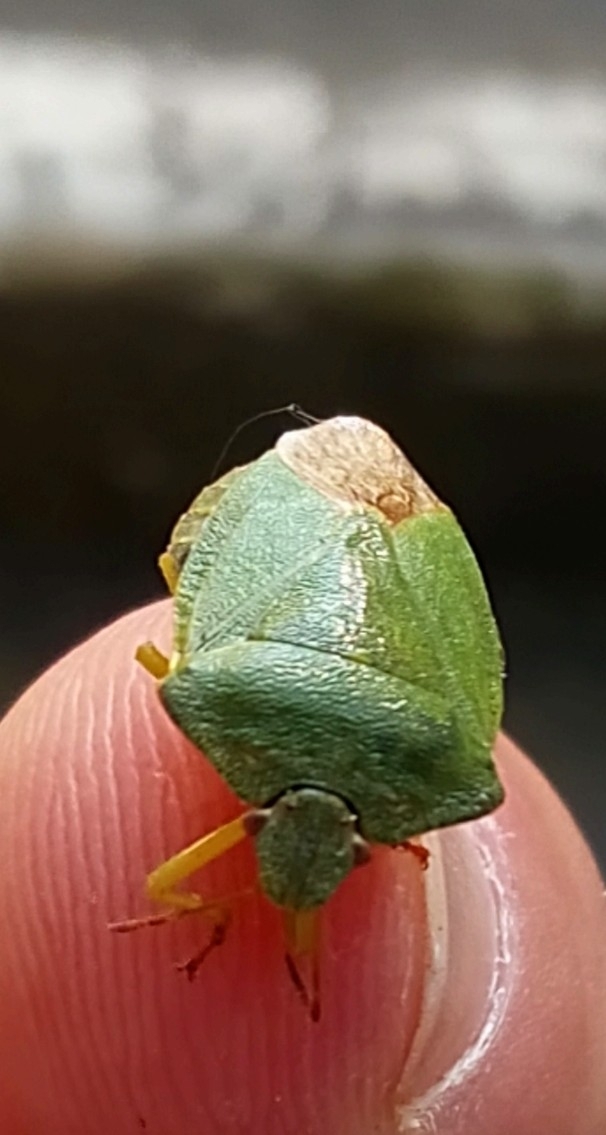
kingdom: Animalia
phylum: Arthropoda
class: Insecta
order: Hemiptera
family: Pentatomidae
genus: Palomena
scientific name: Palomena prasina
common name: Green shieldbug
